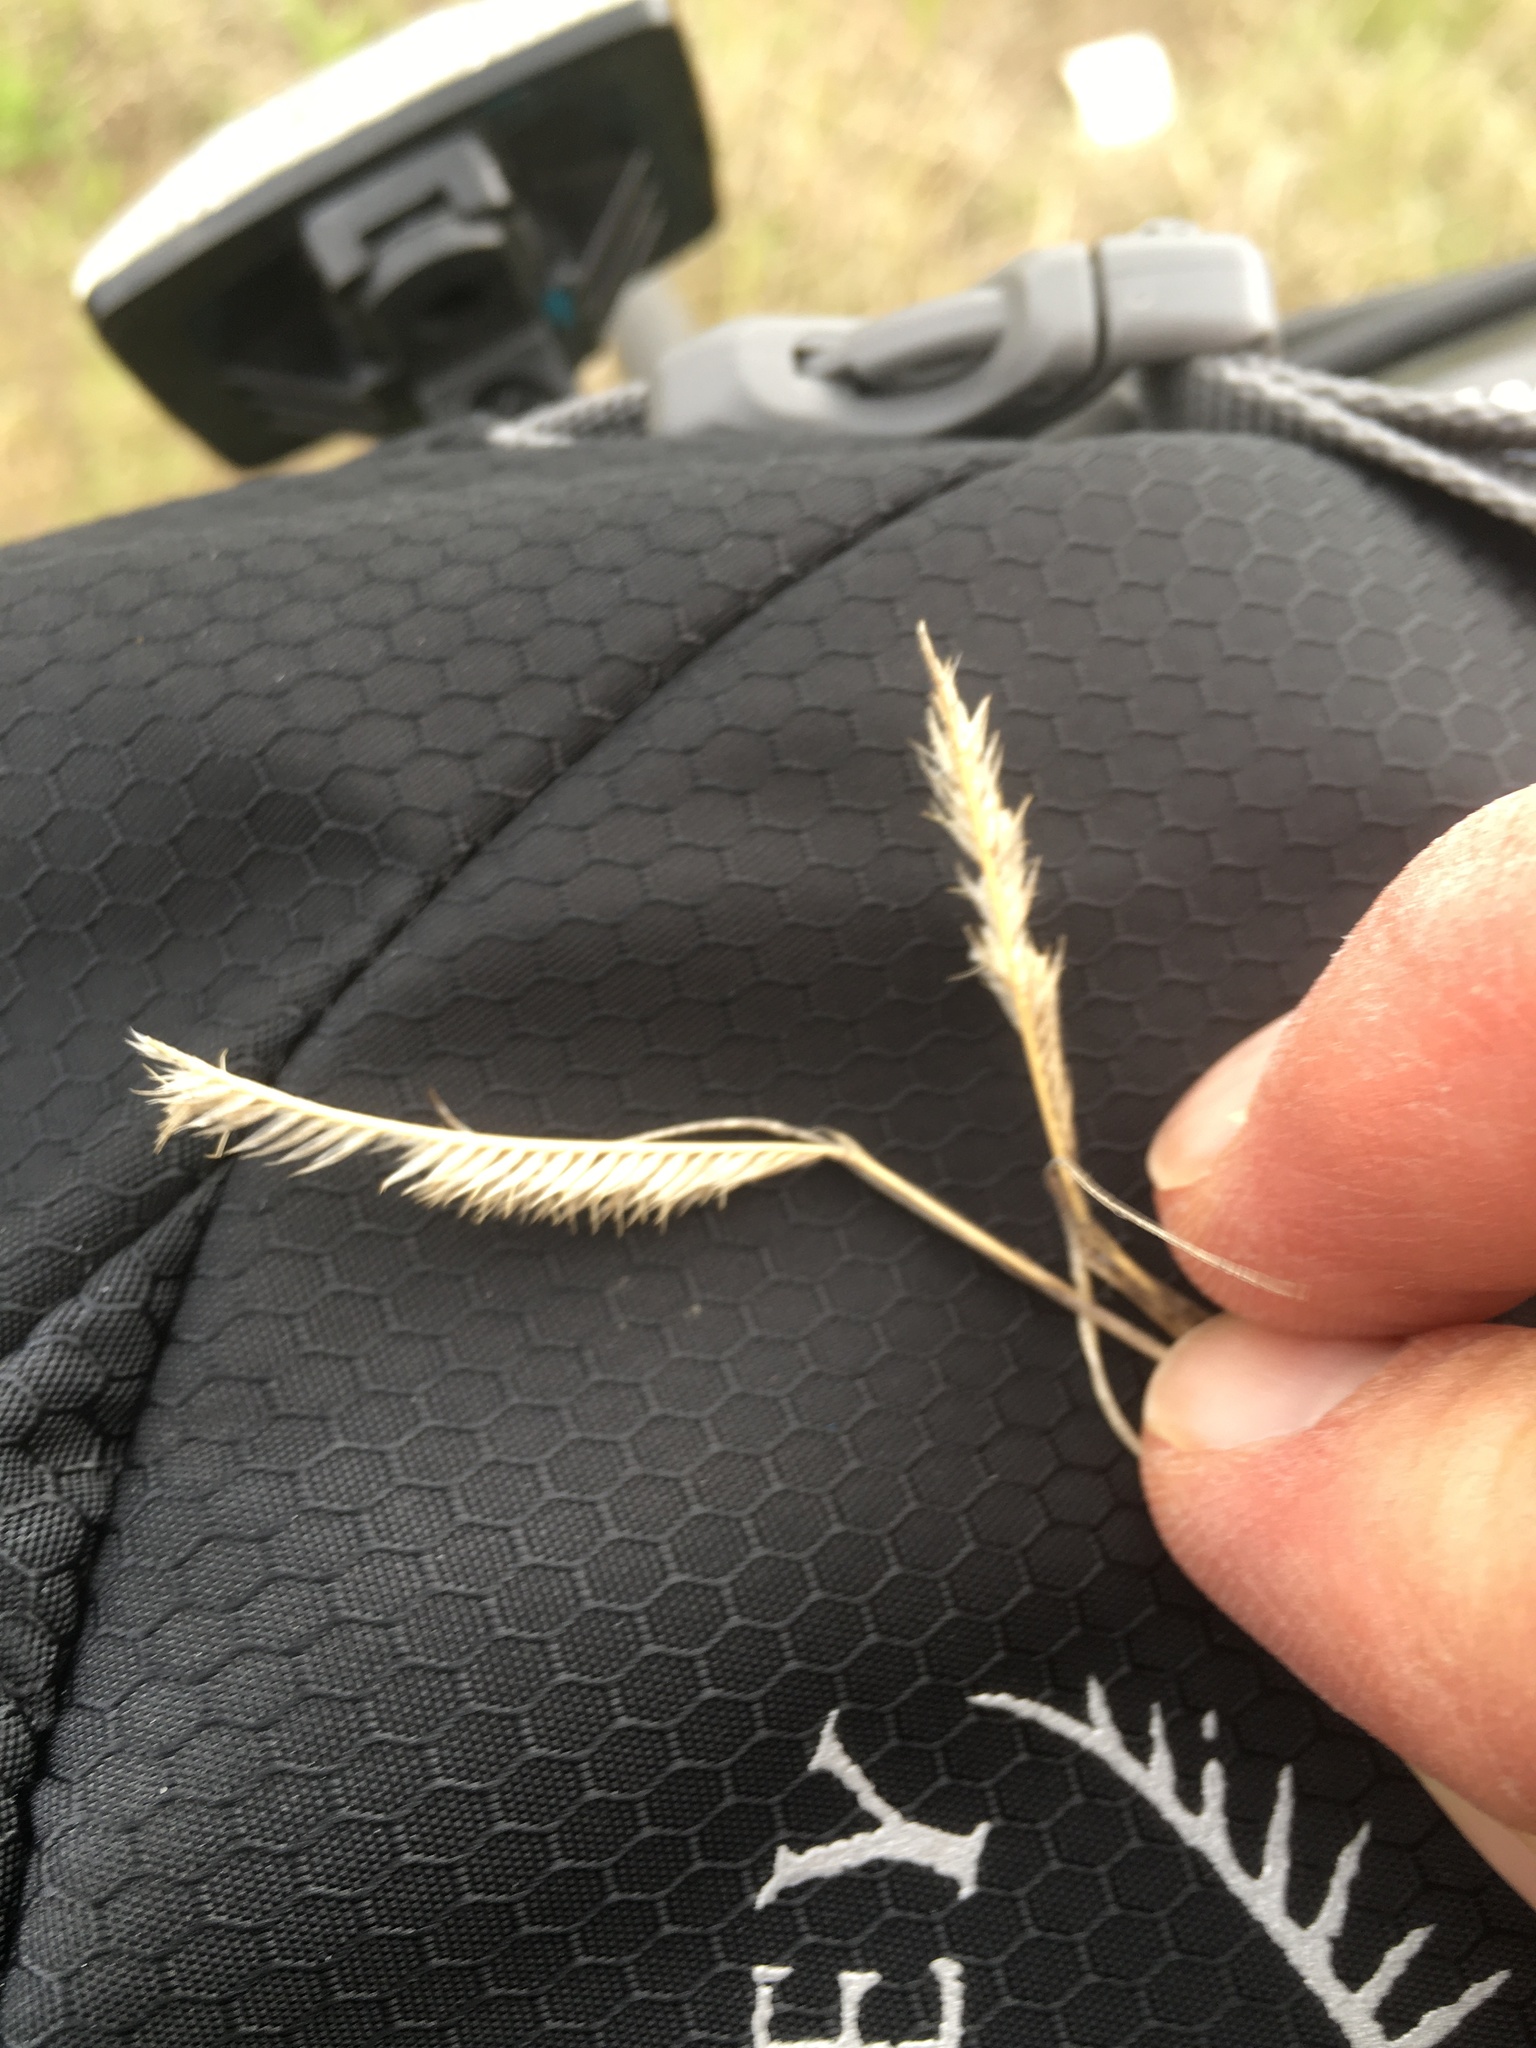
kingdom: Plantae
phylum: Tracheophyta
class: Liliopsida
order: Poales
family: Poaceae
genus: Bouteloua
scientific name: Bouteloua gracilis
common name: Blue grama
